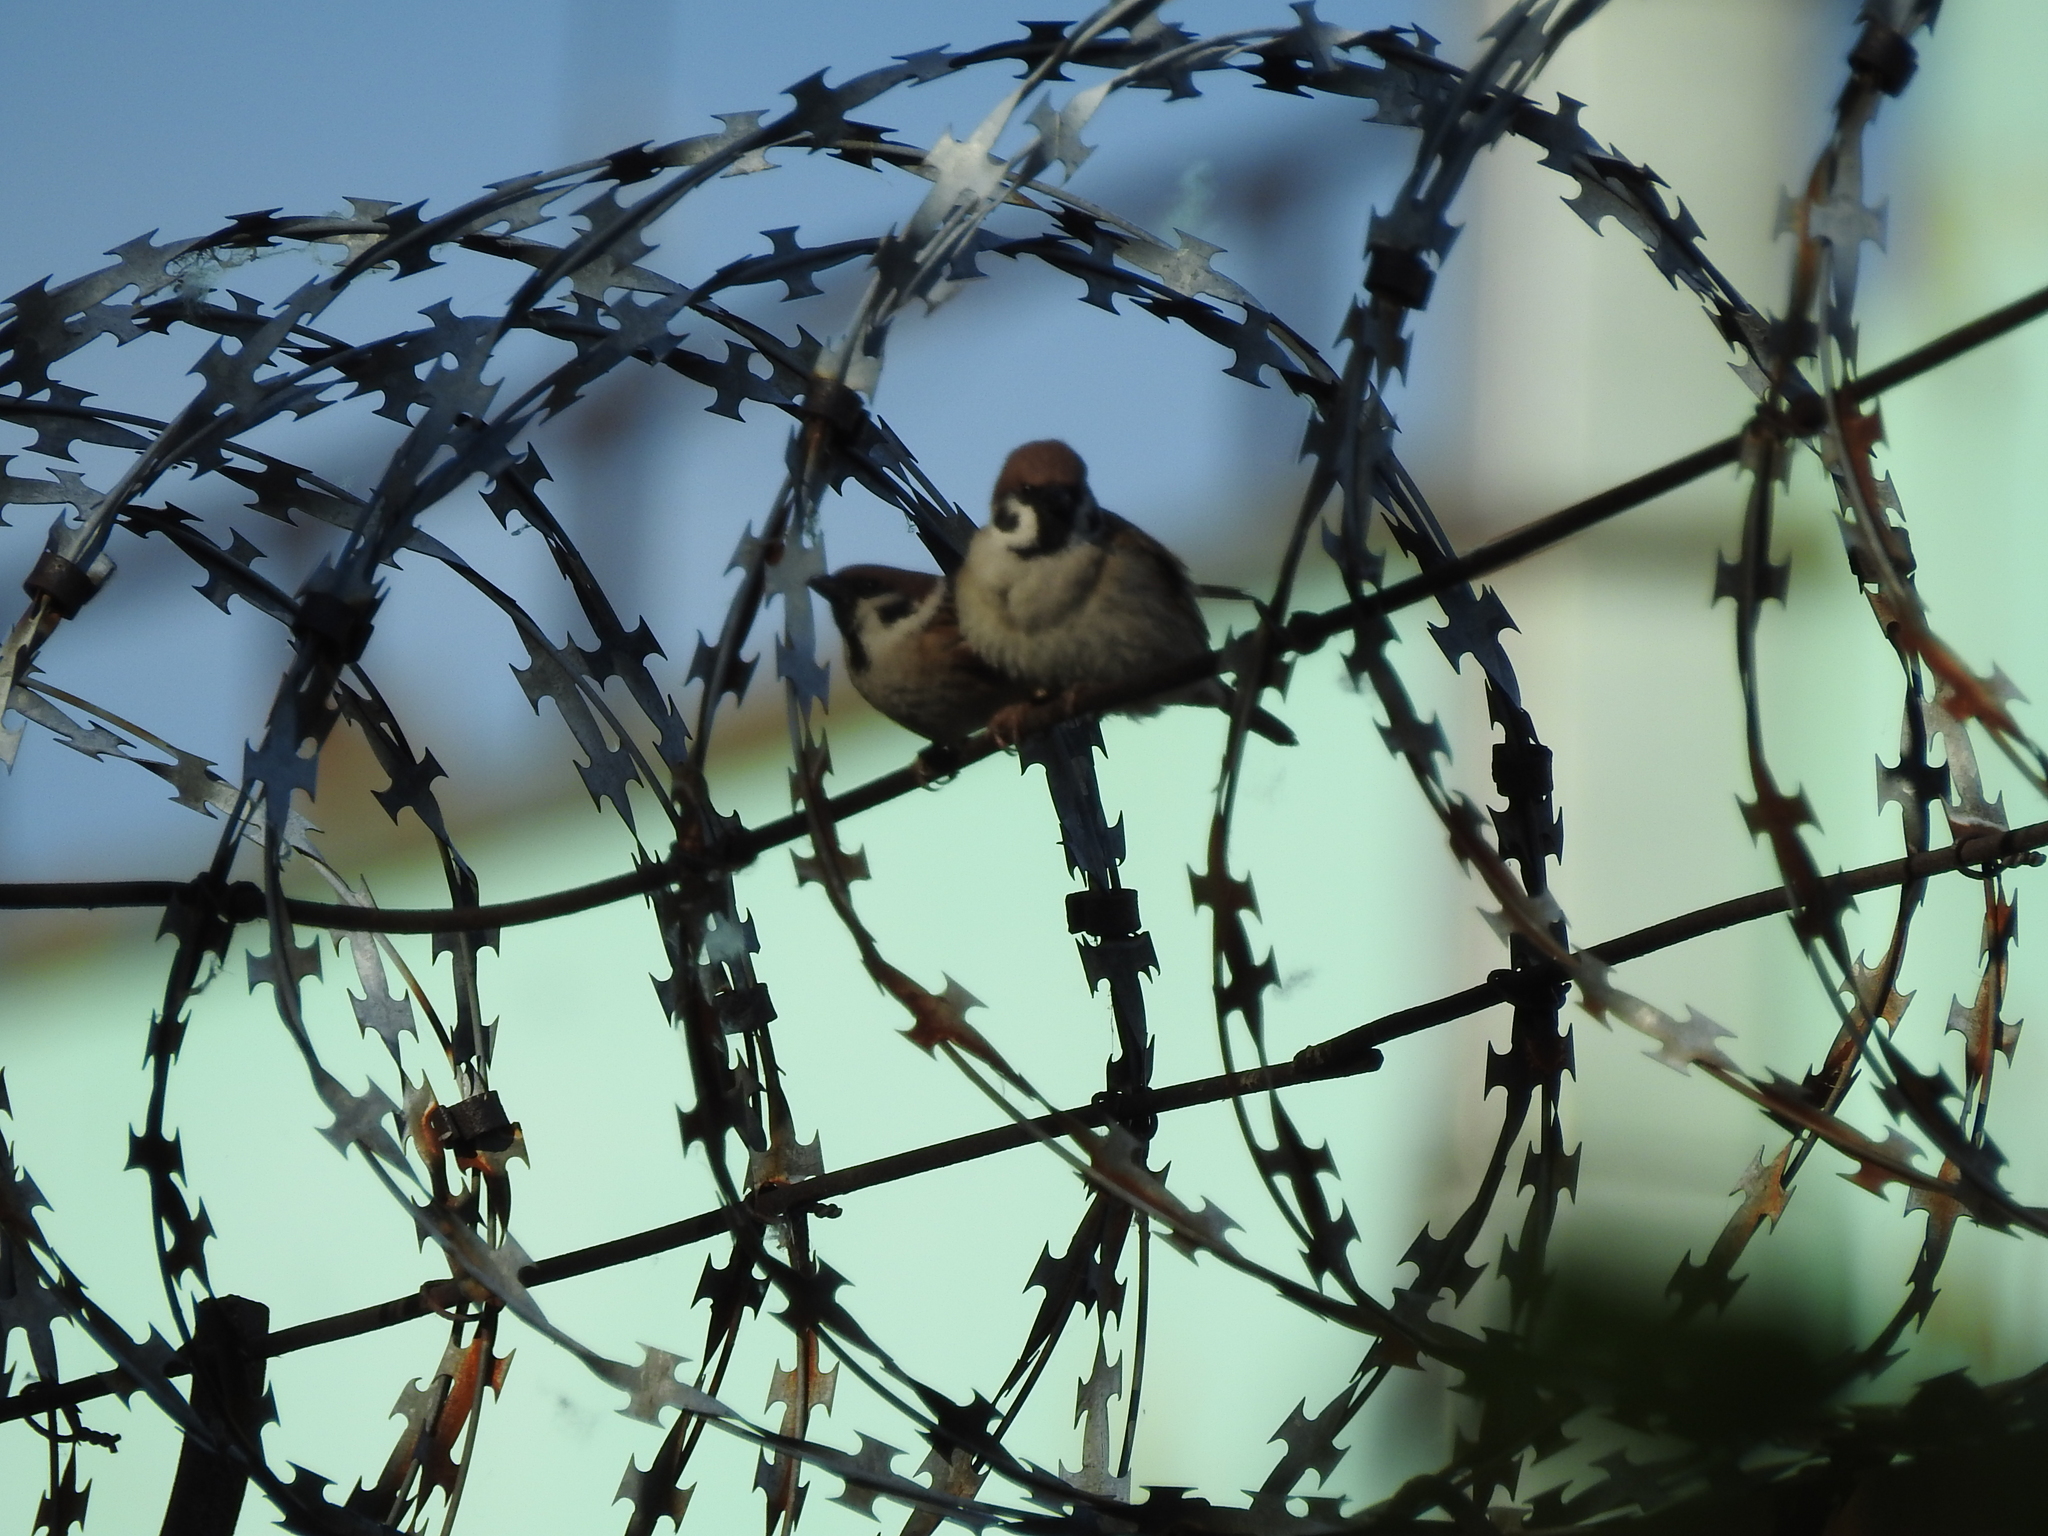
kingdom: Animalia
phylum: Chordata
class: Aves
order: Passeriformes
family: Passeridae
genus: Passer
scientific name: Passer montanus
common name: Eurasian tree sparrow
